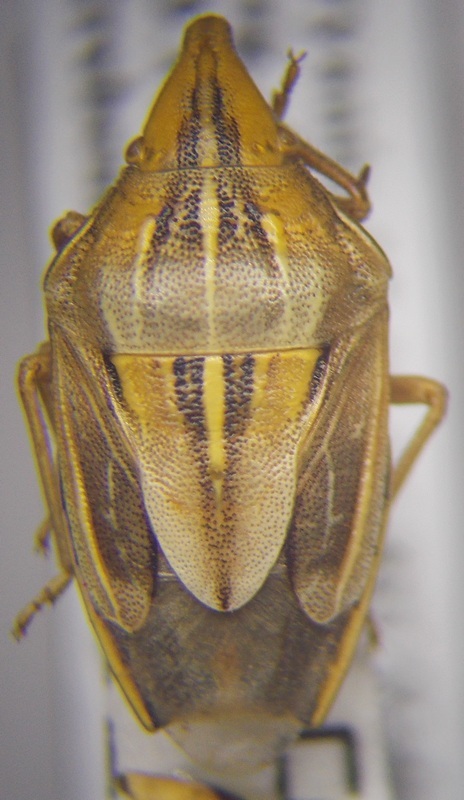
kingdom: Animalia
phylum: Arthropoda
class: Insecta
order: Hemiptera
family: Pentatomidae
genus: Aelia
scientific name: Aelia rostrata
